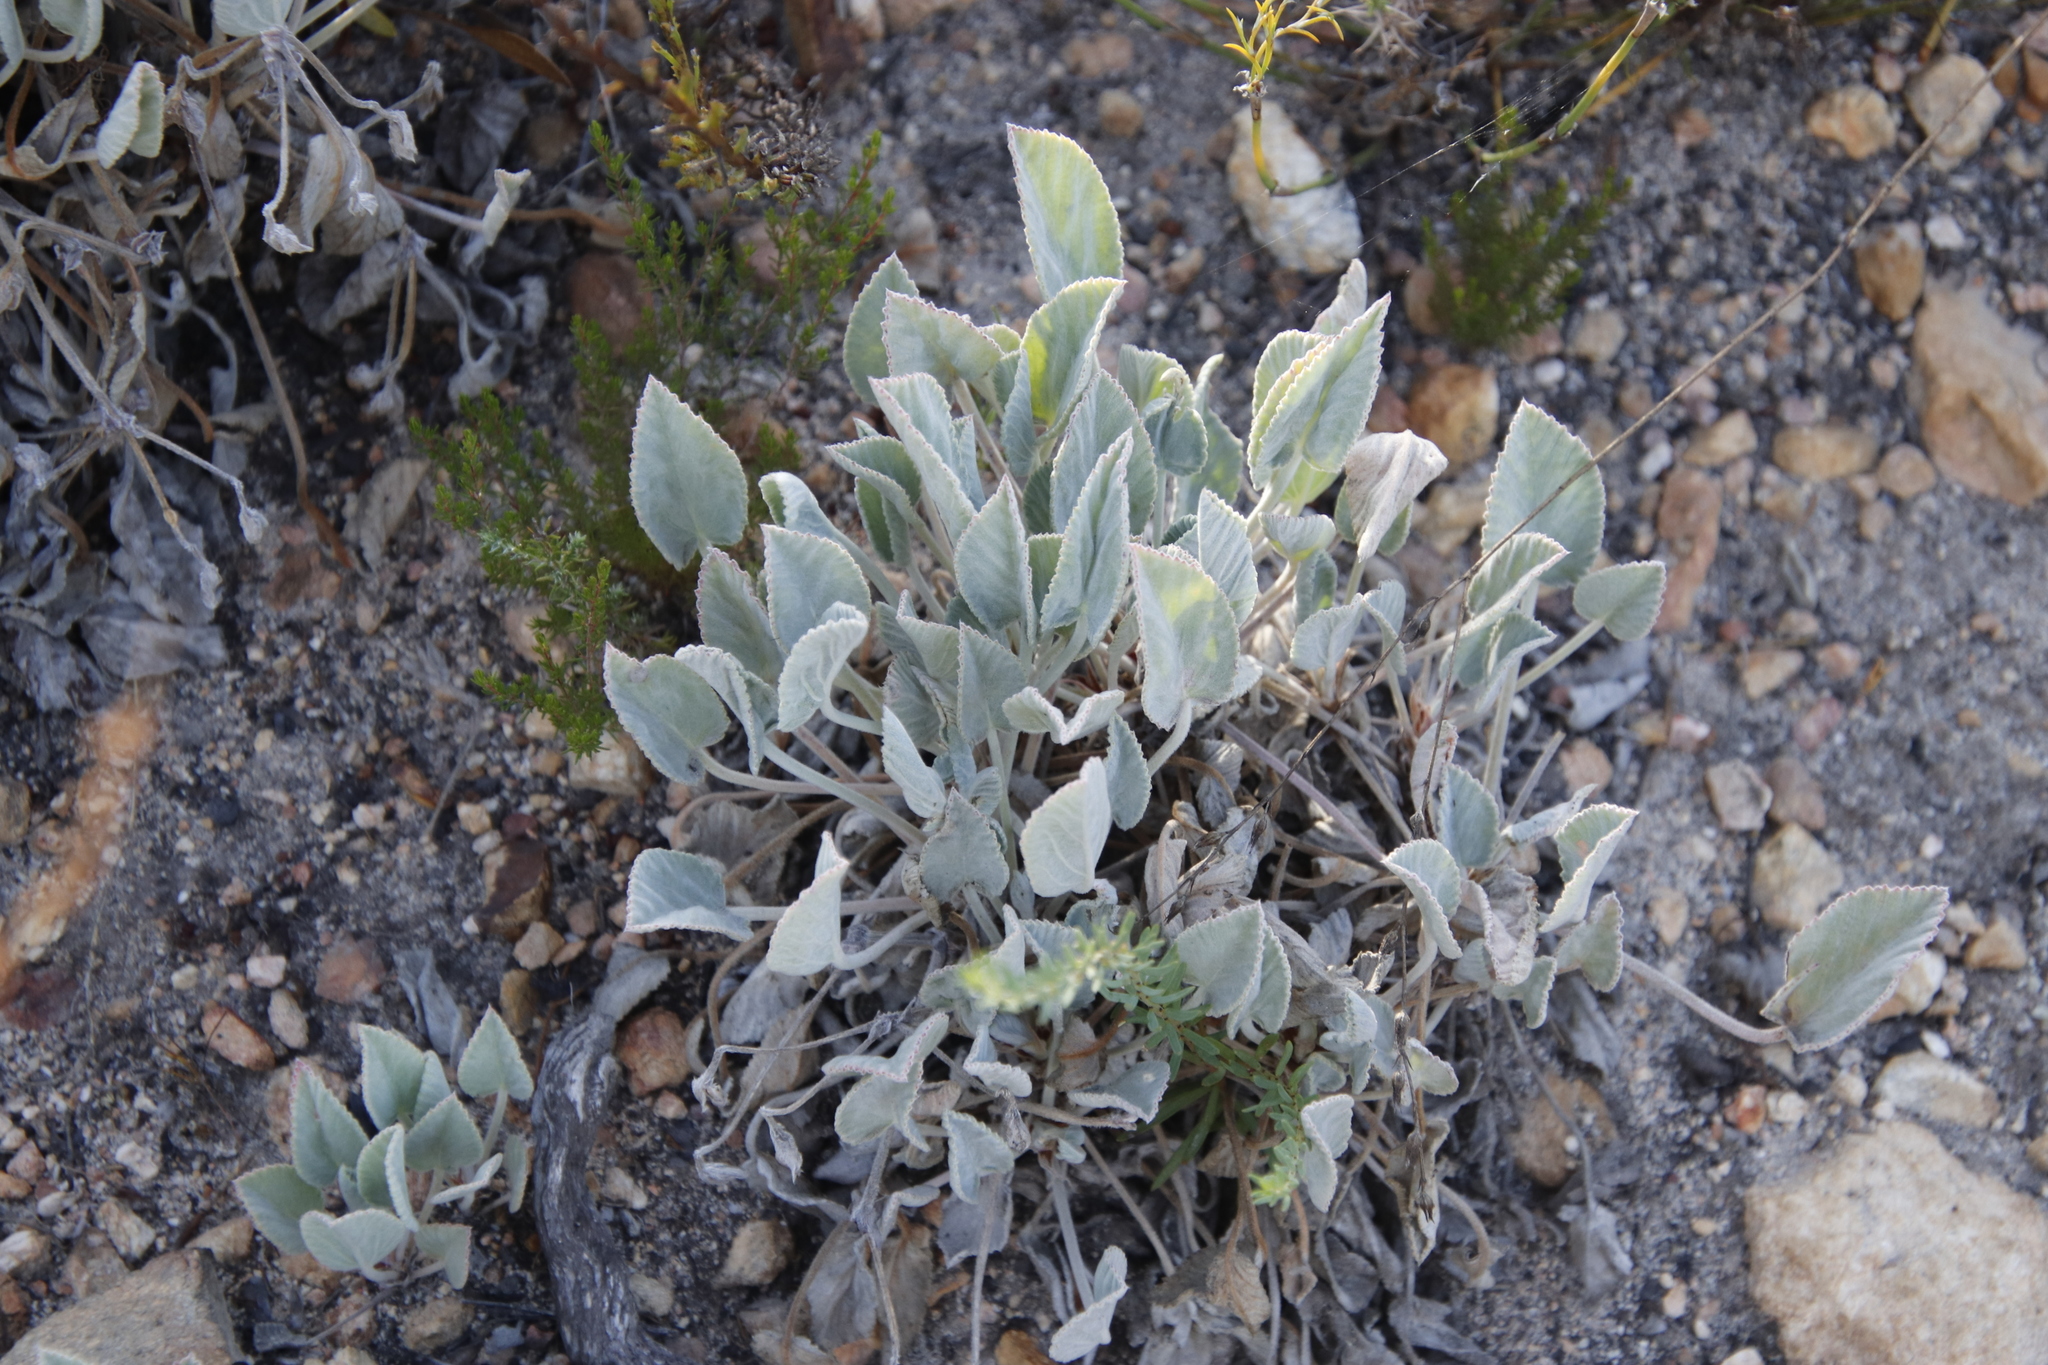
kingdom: Plantae
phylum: Tracheophyta
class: Magnoliopsida
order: Geraniales
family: Geraniaceae
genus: Pelargonium
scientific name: Pelargonium ovale
